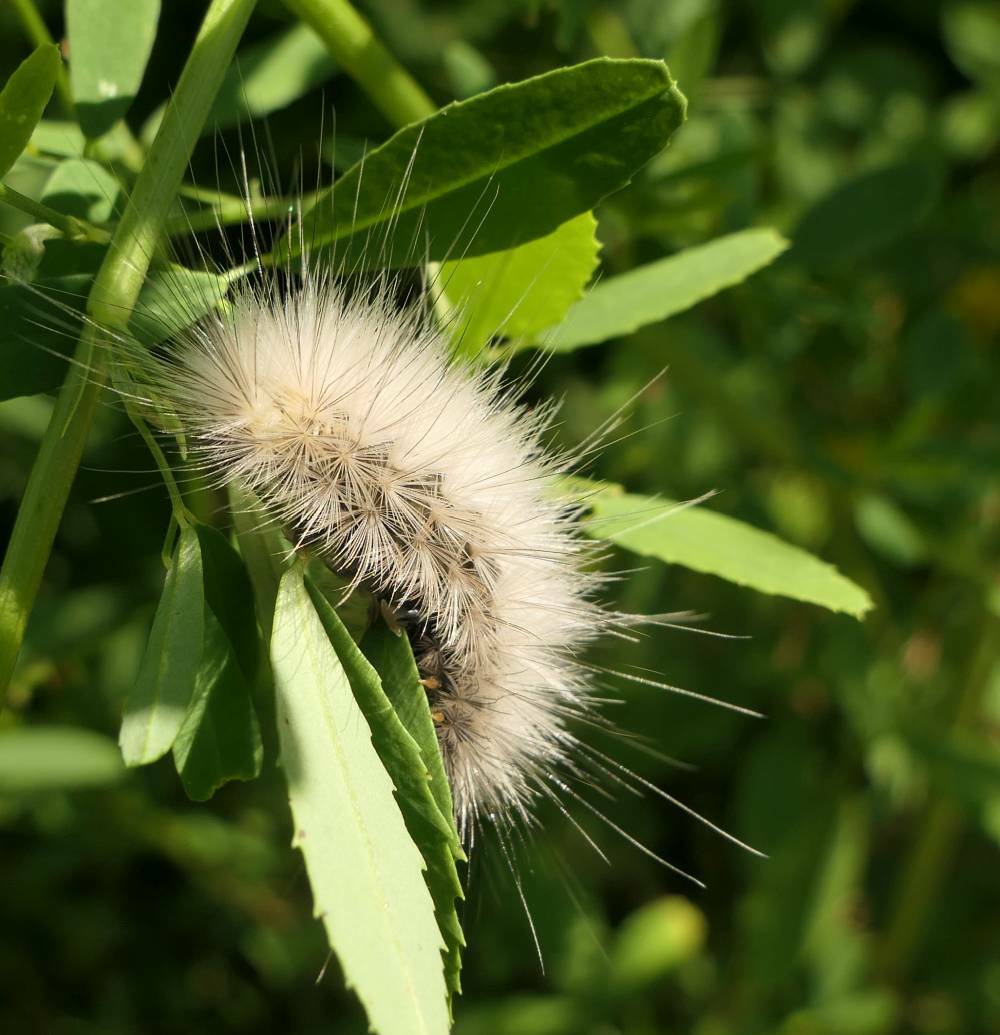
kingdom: Animalia
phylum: Arthropoda
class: Insecta
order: Lepidoptera
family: Erebidae
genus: Spilosoma
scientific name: Spilosoma virginica
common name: Virginia tiger moth
